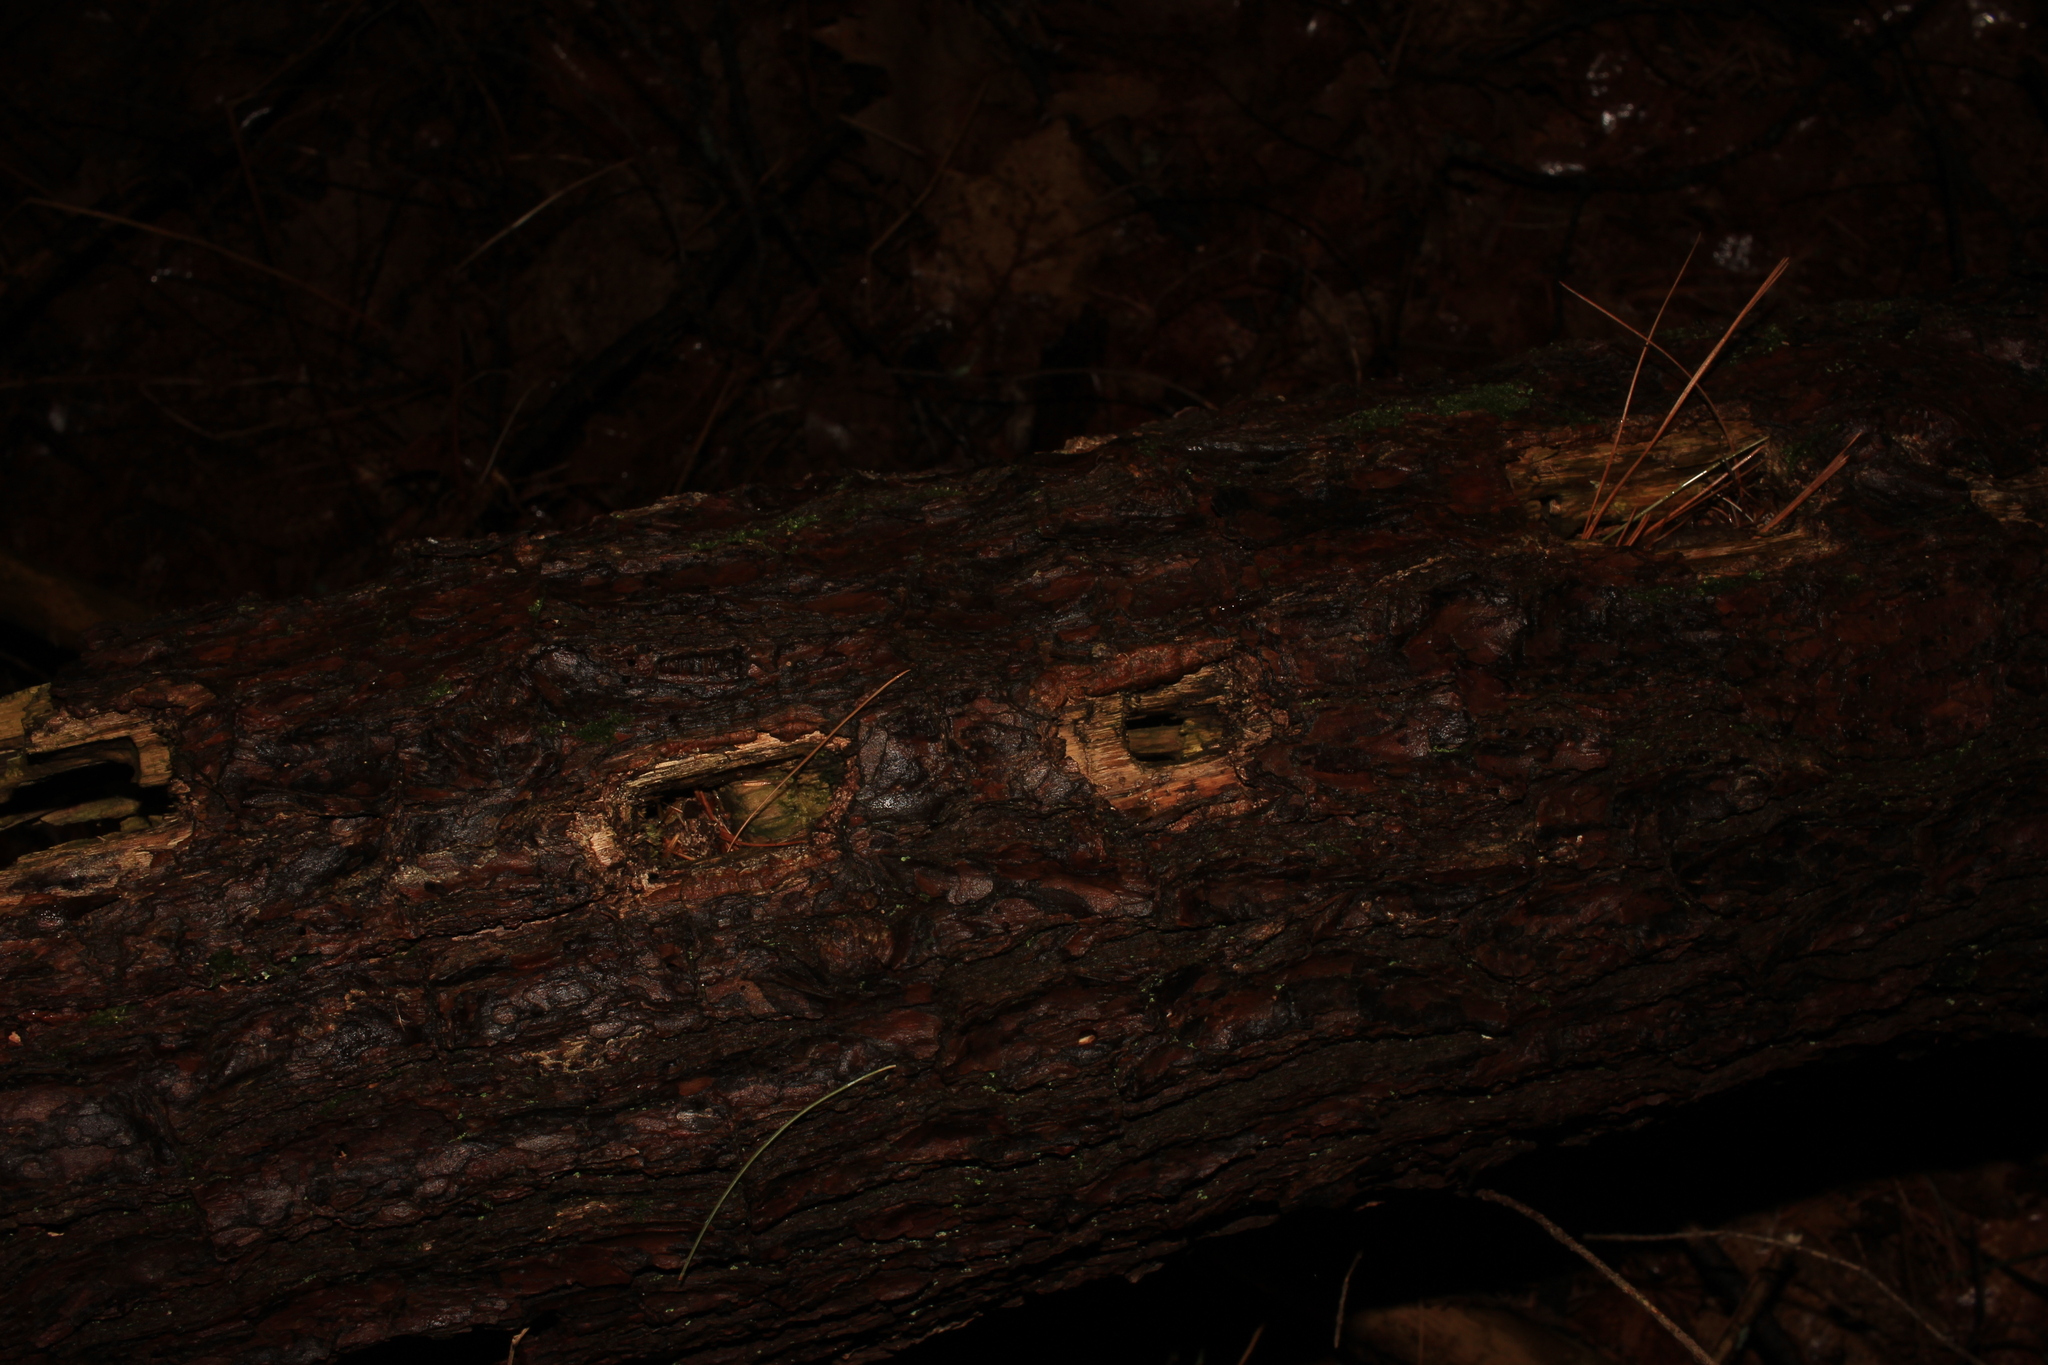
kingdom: Animalia
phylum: Chordata
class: Aves
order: Piciformes
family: Picidae
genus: Dryocopus
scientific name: Dryocopus pileatus
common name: Pileated woodpecker
